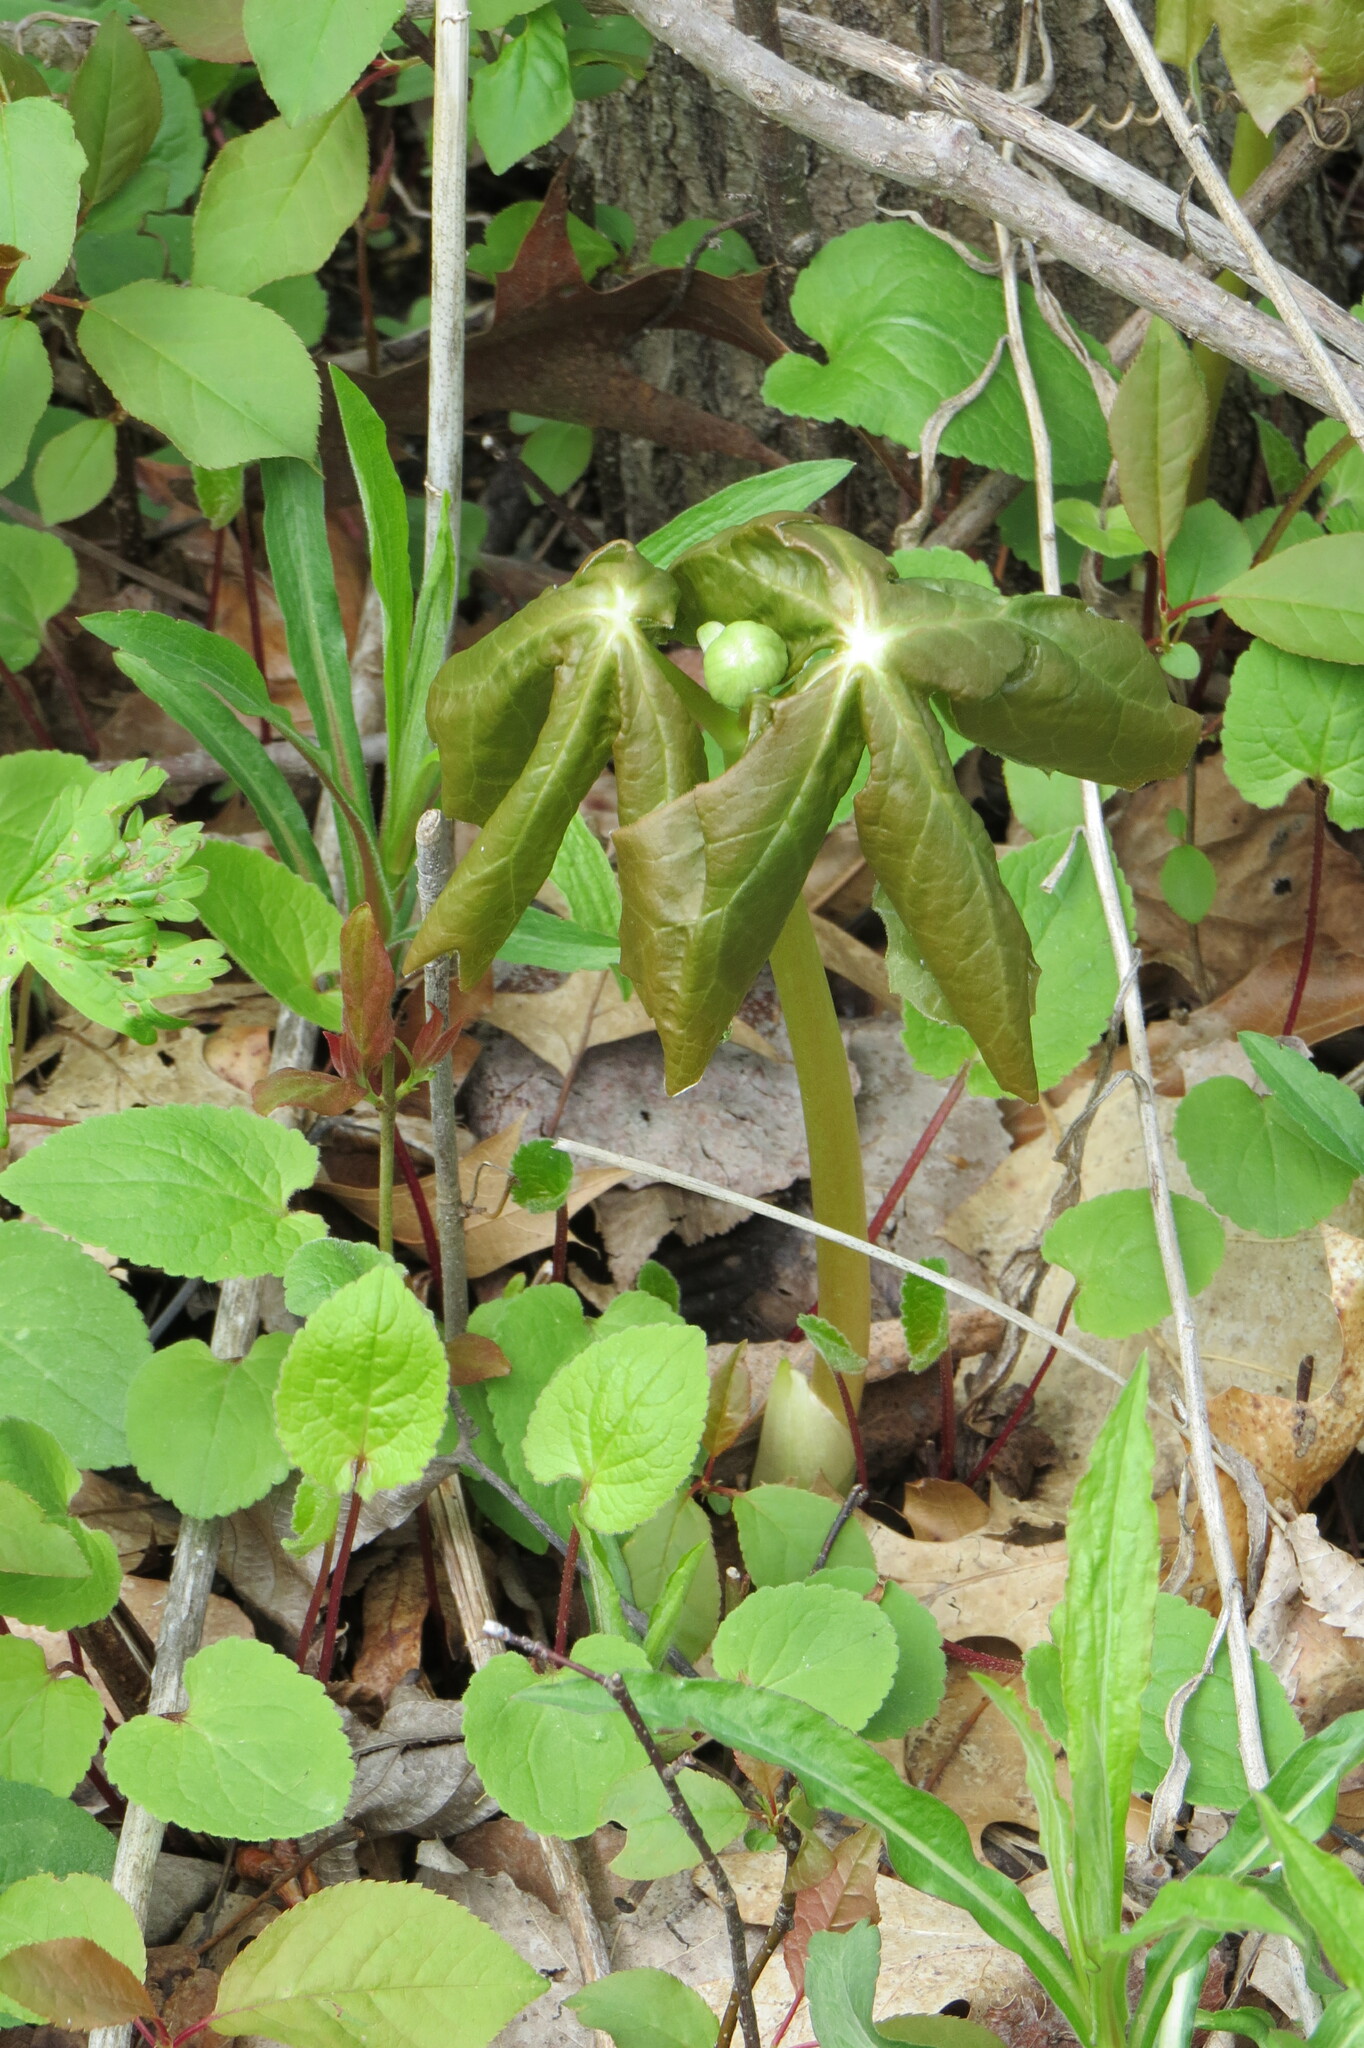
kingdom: Plantae
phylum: Tracheophyta
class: Magnoliopsida
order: Ranunculales
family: Berberidaceae
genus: Podophyllum
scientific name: Podophyllum peltatum
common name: Wild mandrake
